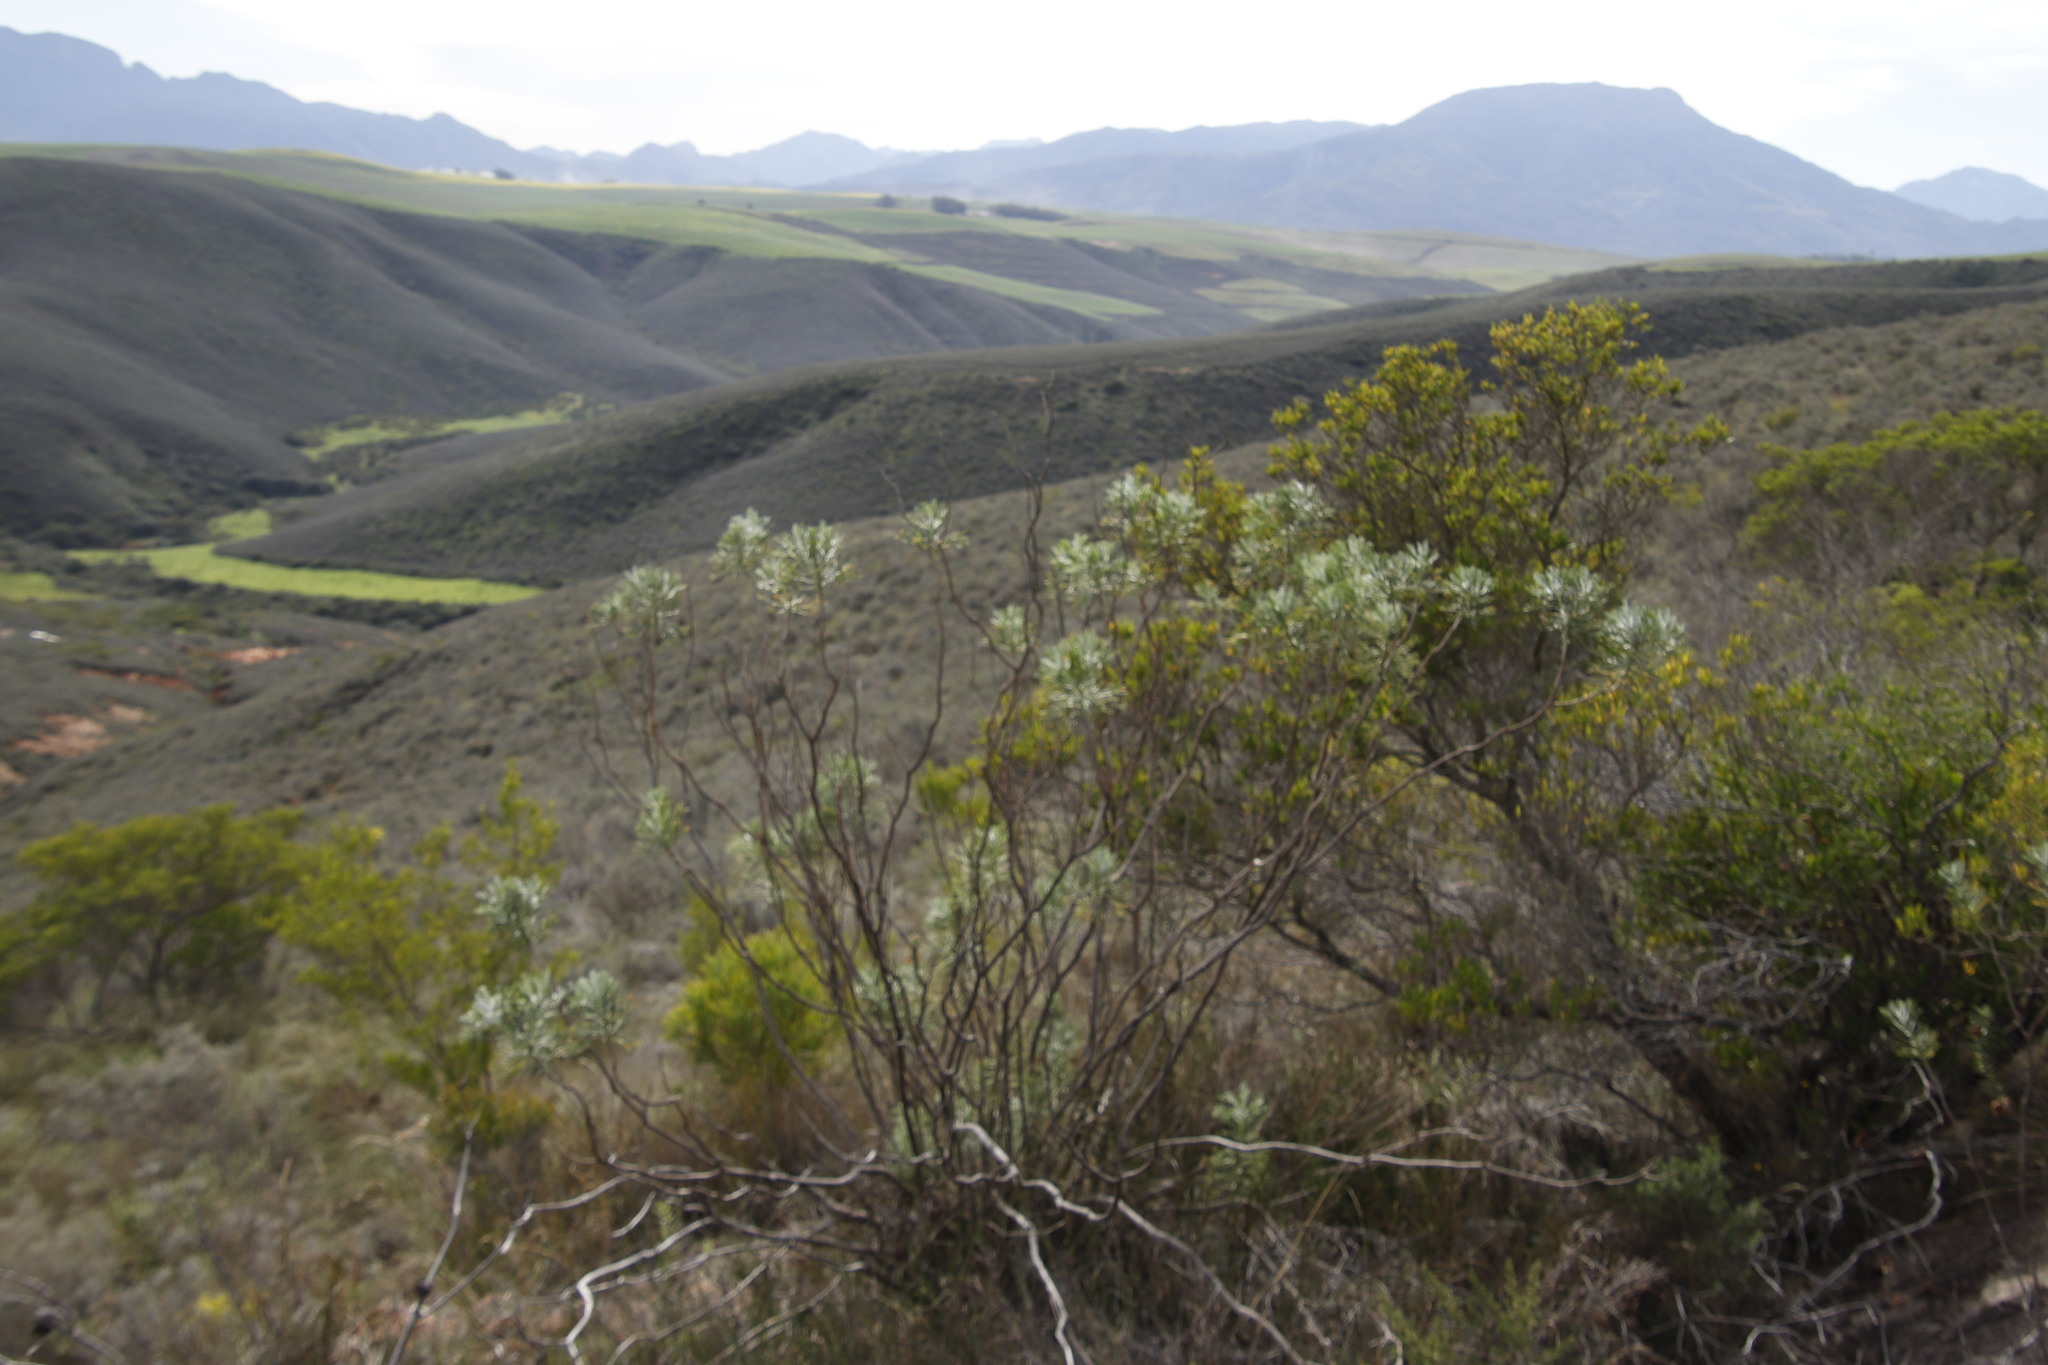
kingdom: Plantae
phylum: Tracheophyta
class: Magnoliopsida
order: Asterales
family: Asteraceae
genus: Hymenolepis
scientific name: Hymenolepis crithmifolia
